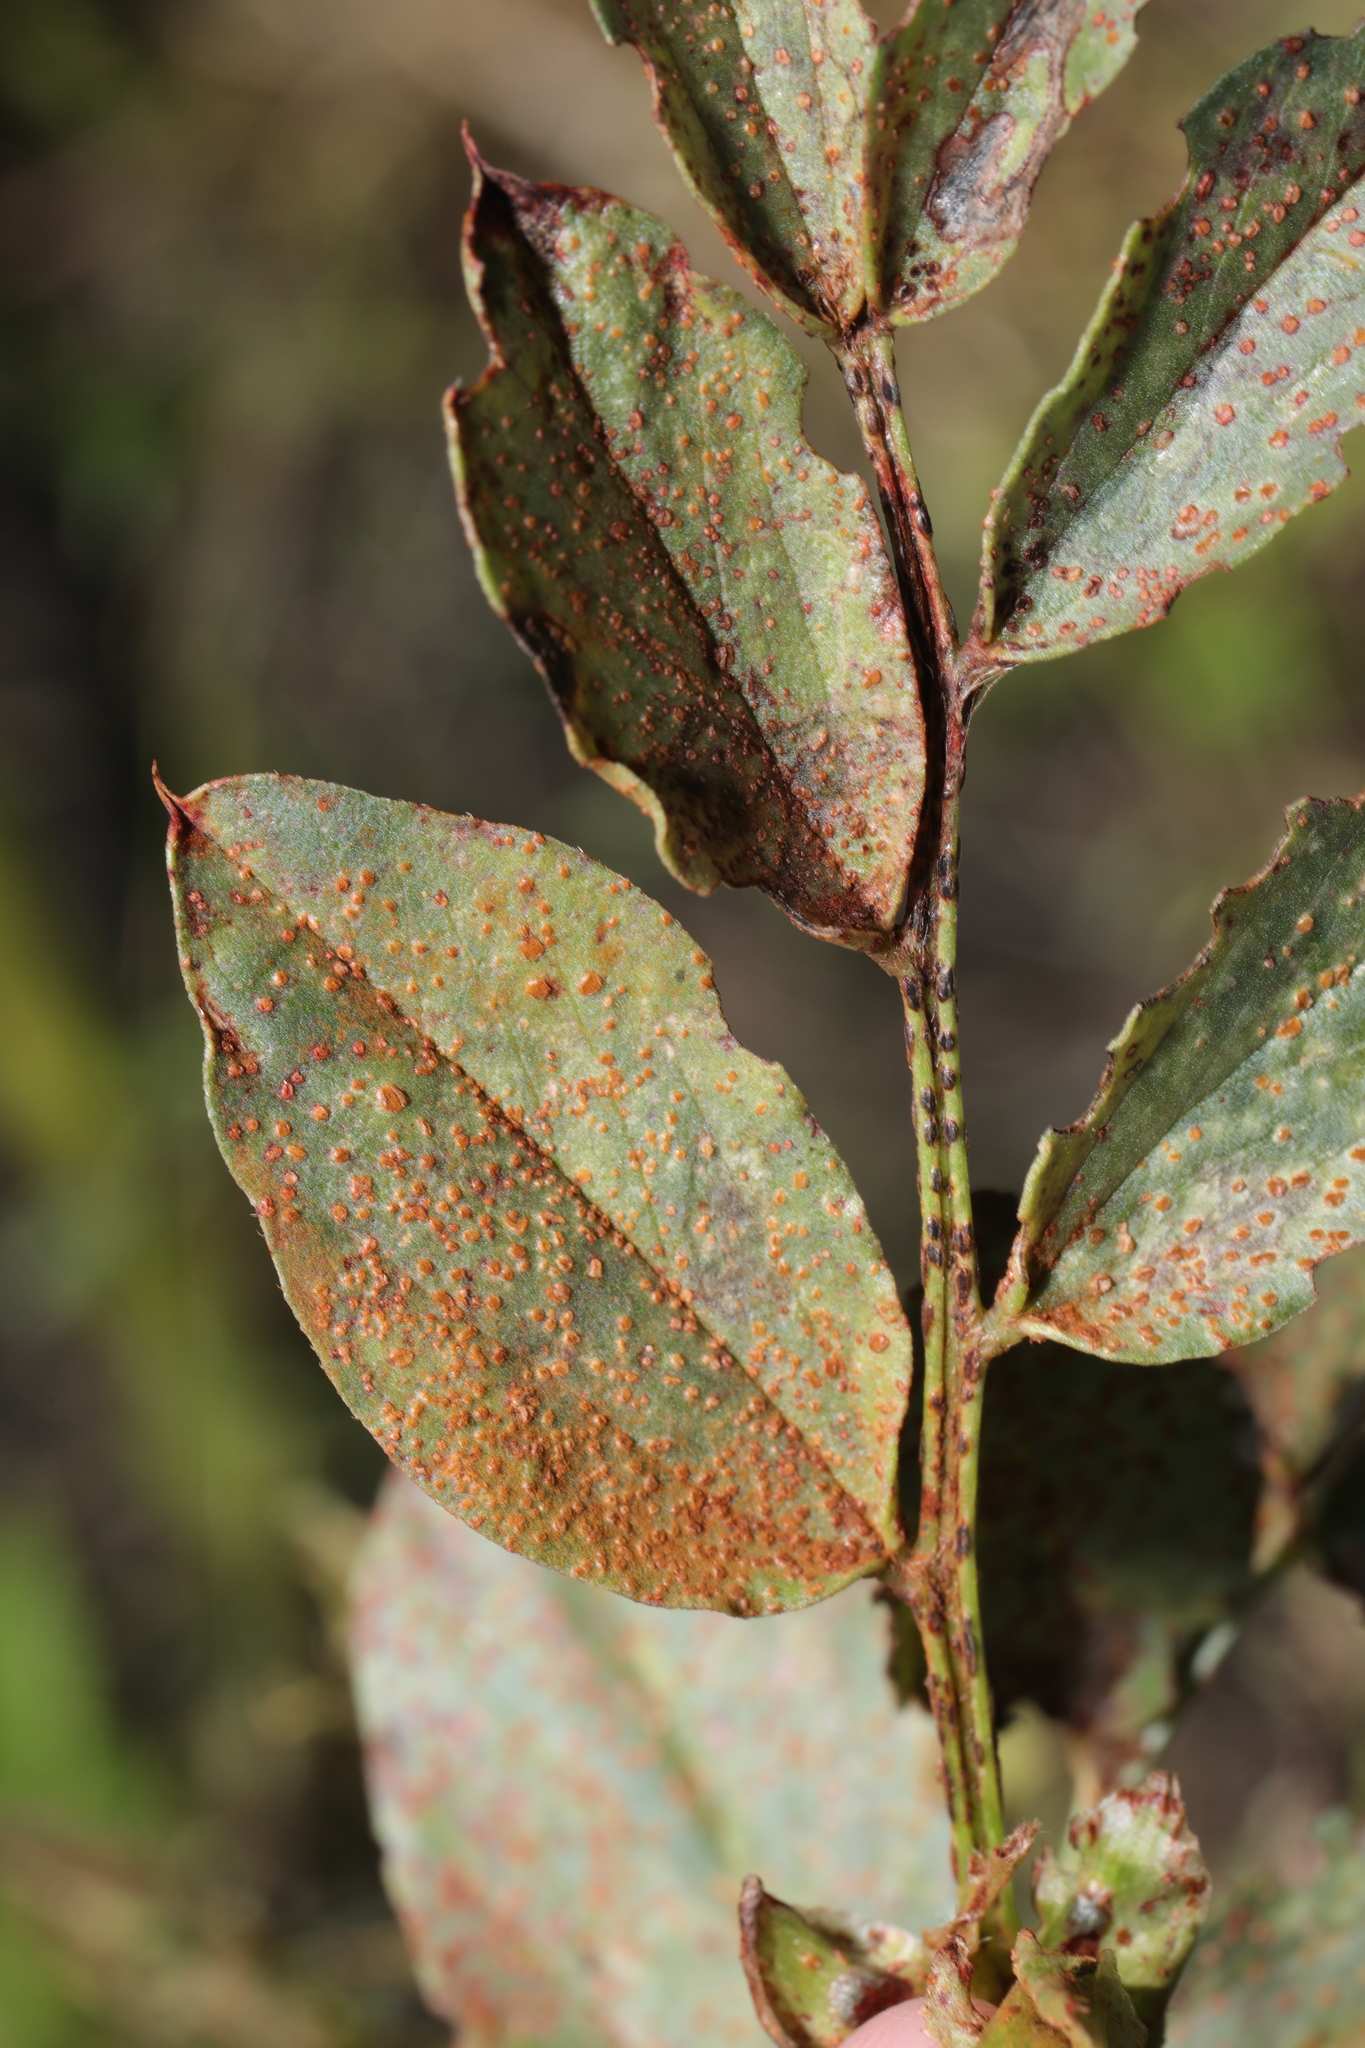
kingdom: Fungi
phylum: Basidiomycota
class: Pucciniomycetes
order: Pucciniales
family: Pucciniaceae
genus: Uromyces
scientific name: Uromyces viciae-fabae
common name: Broad bean rust
